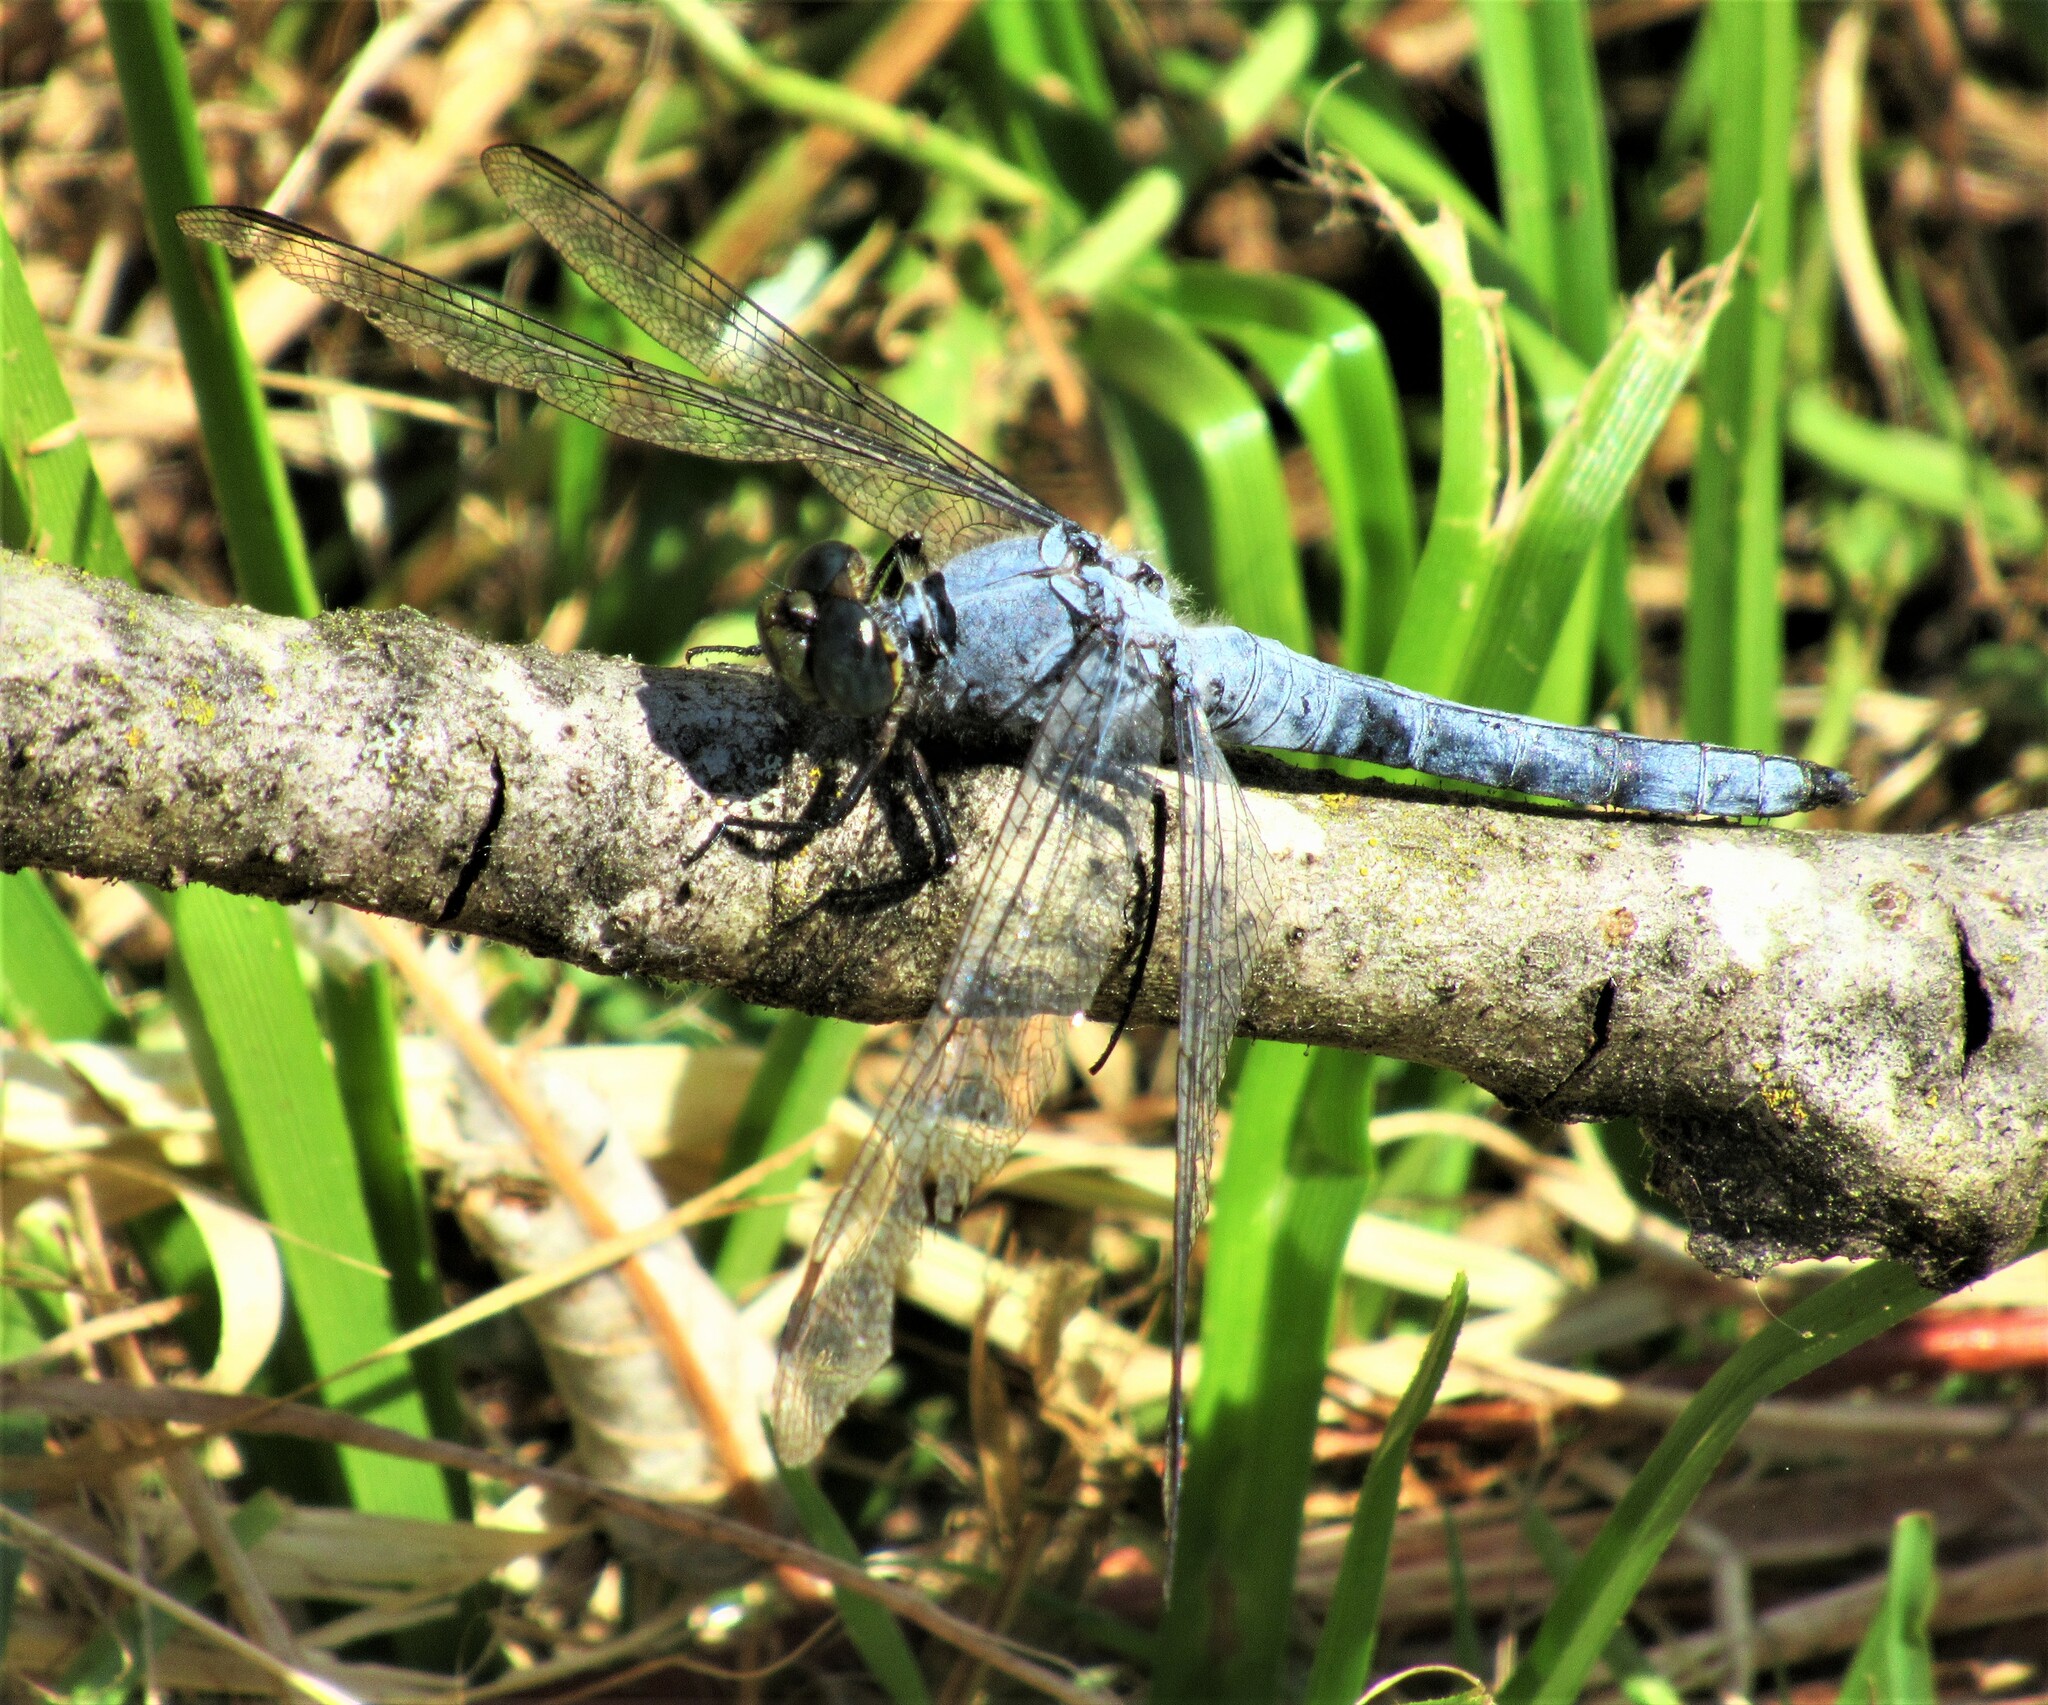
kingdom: Animalia
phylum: Arthropoda
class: Insecta
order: Odonata
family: Libellulidae
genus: Erythemis
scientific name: Erythemis collocata
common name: Western pondhawk
